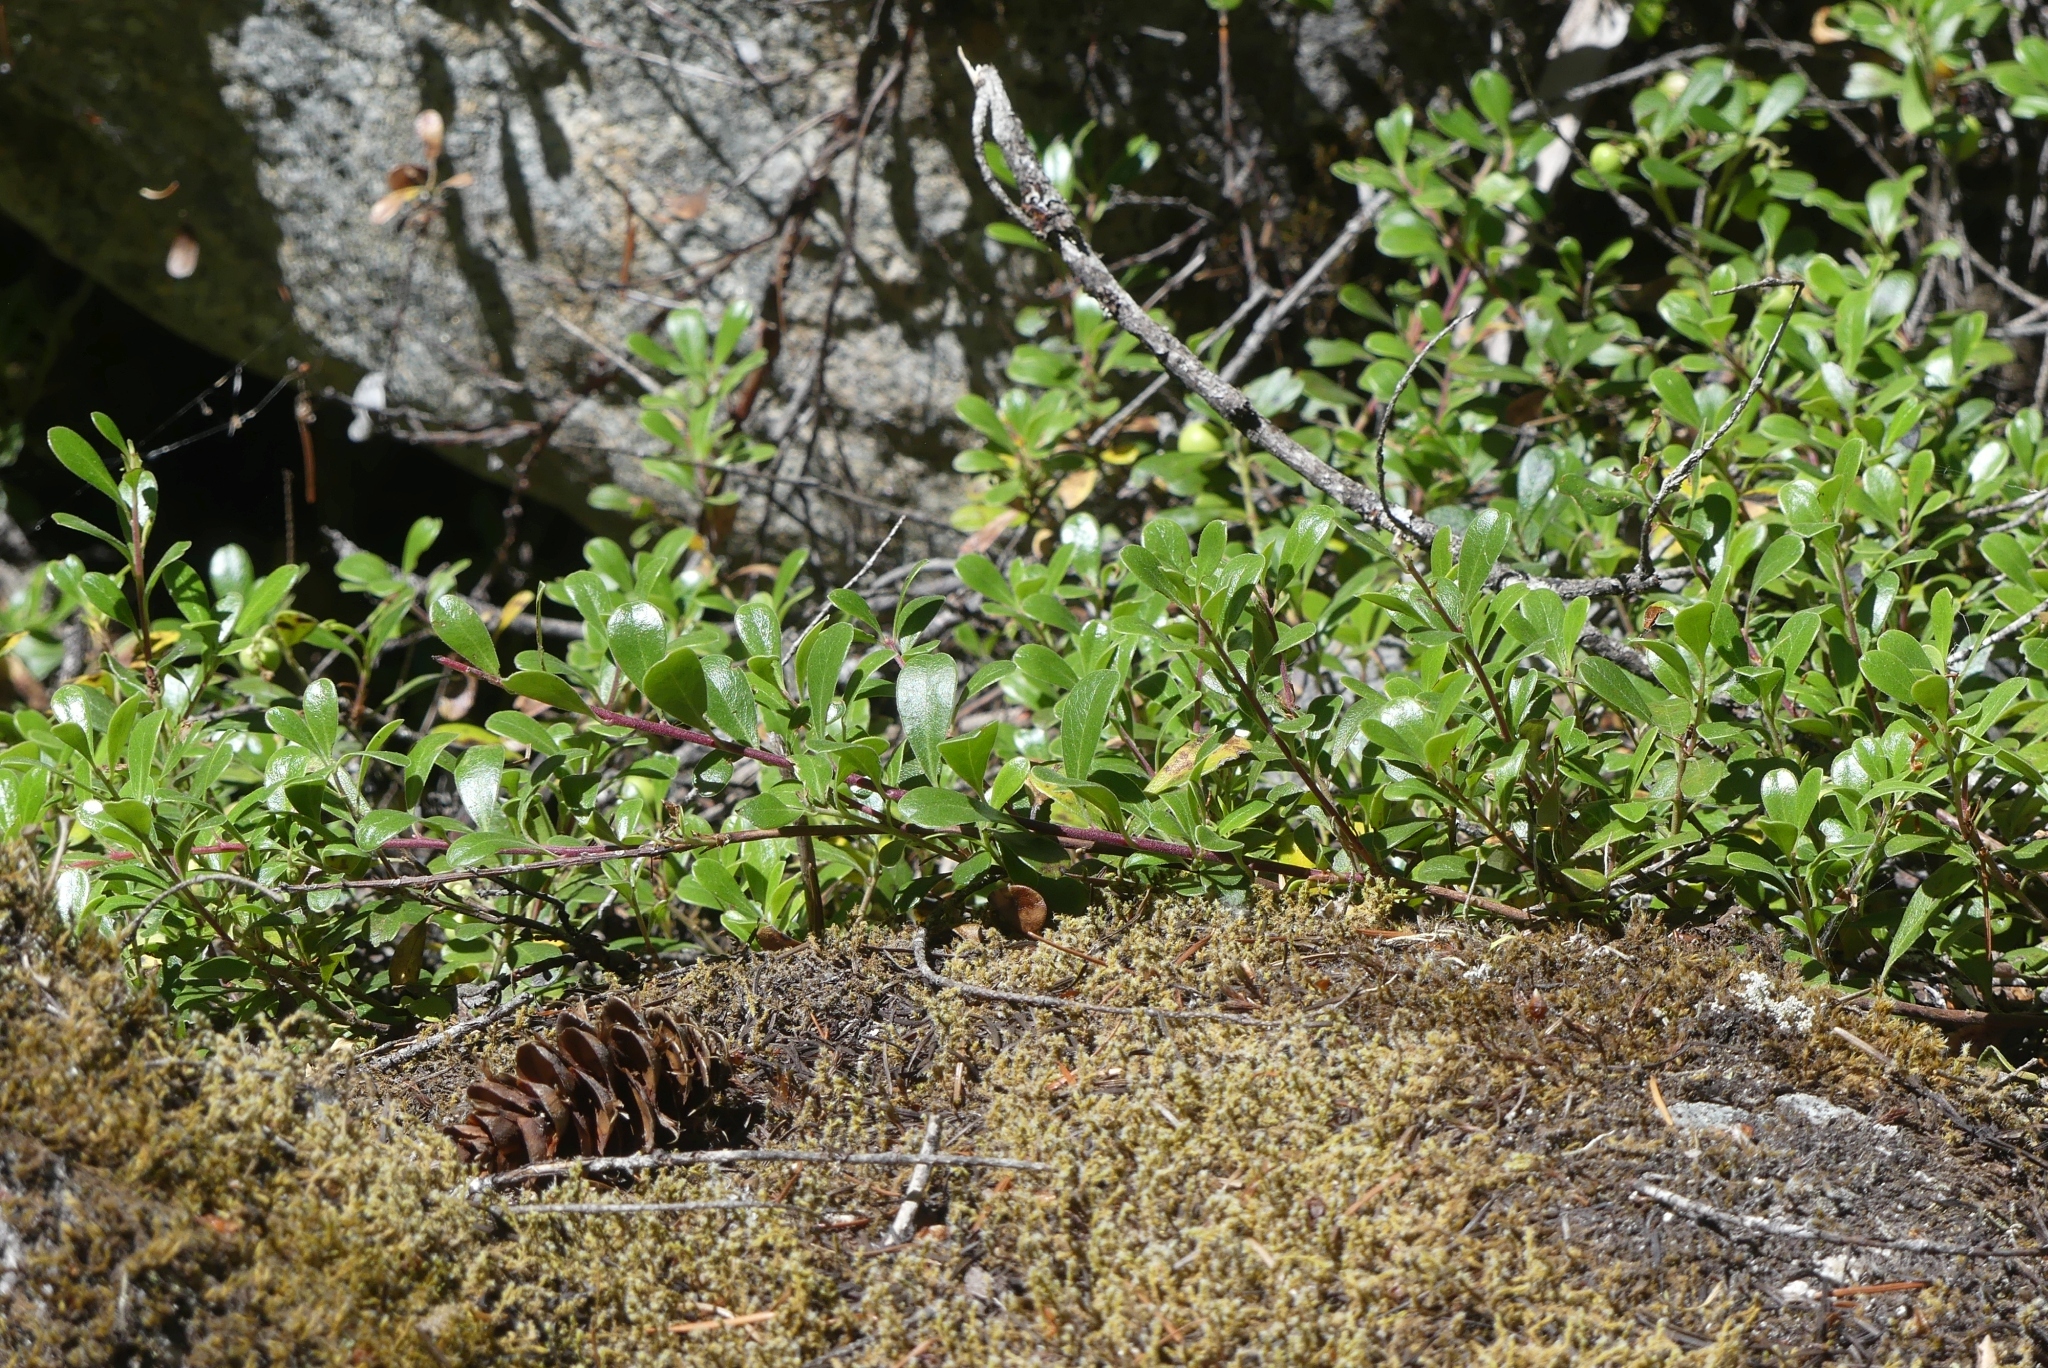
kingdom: Plantae
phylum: Tracheophyta
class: Magnoliopsida
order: Ericales
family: Ericaceae
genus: Arctostaphylos
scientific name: Arctostaphylos uva-ursi
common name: Bearberry
